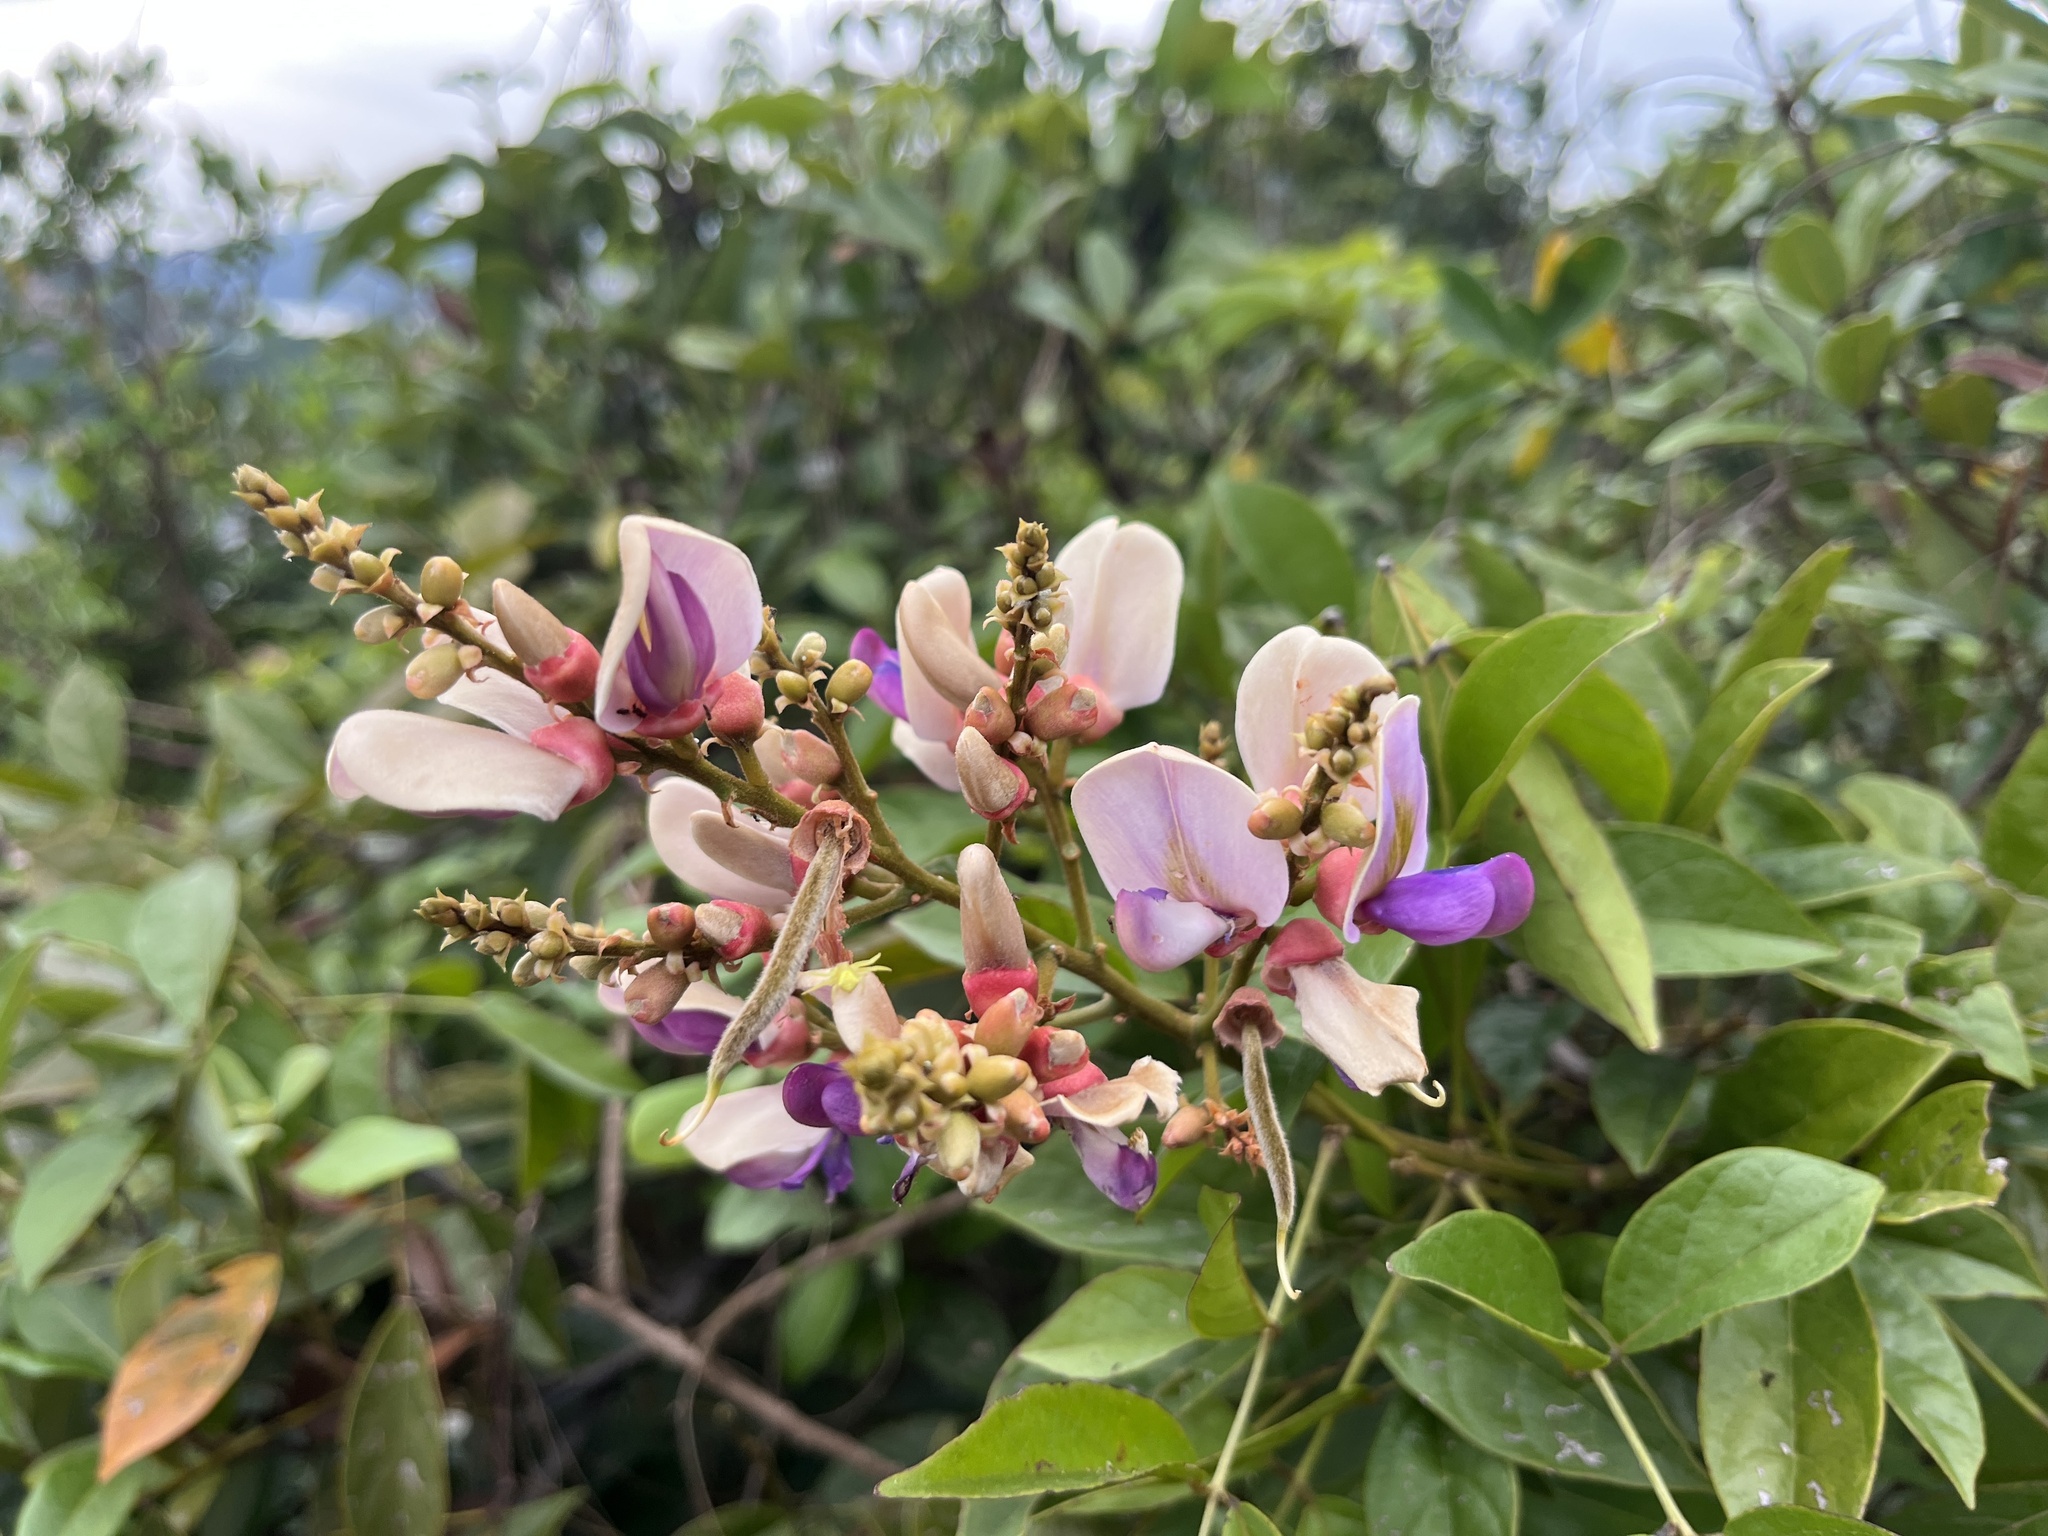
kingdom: Plantae
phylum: Tracheophyta
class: Magnoliopsida
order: Fabales
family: Fabaceae
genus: Callerya
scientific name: Callerya nitida
